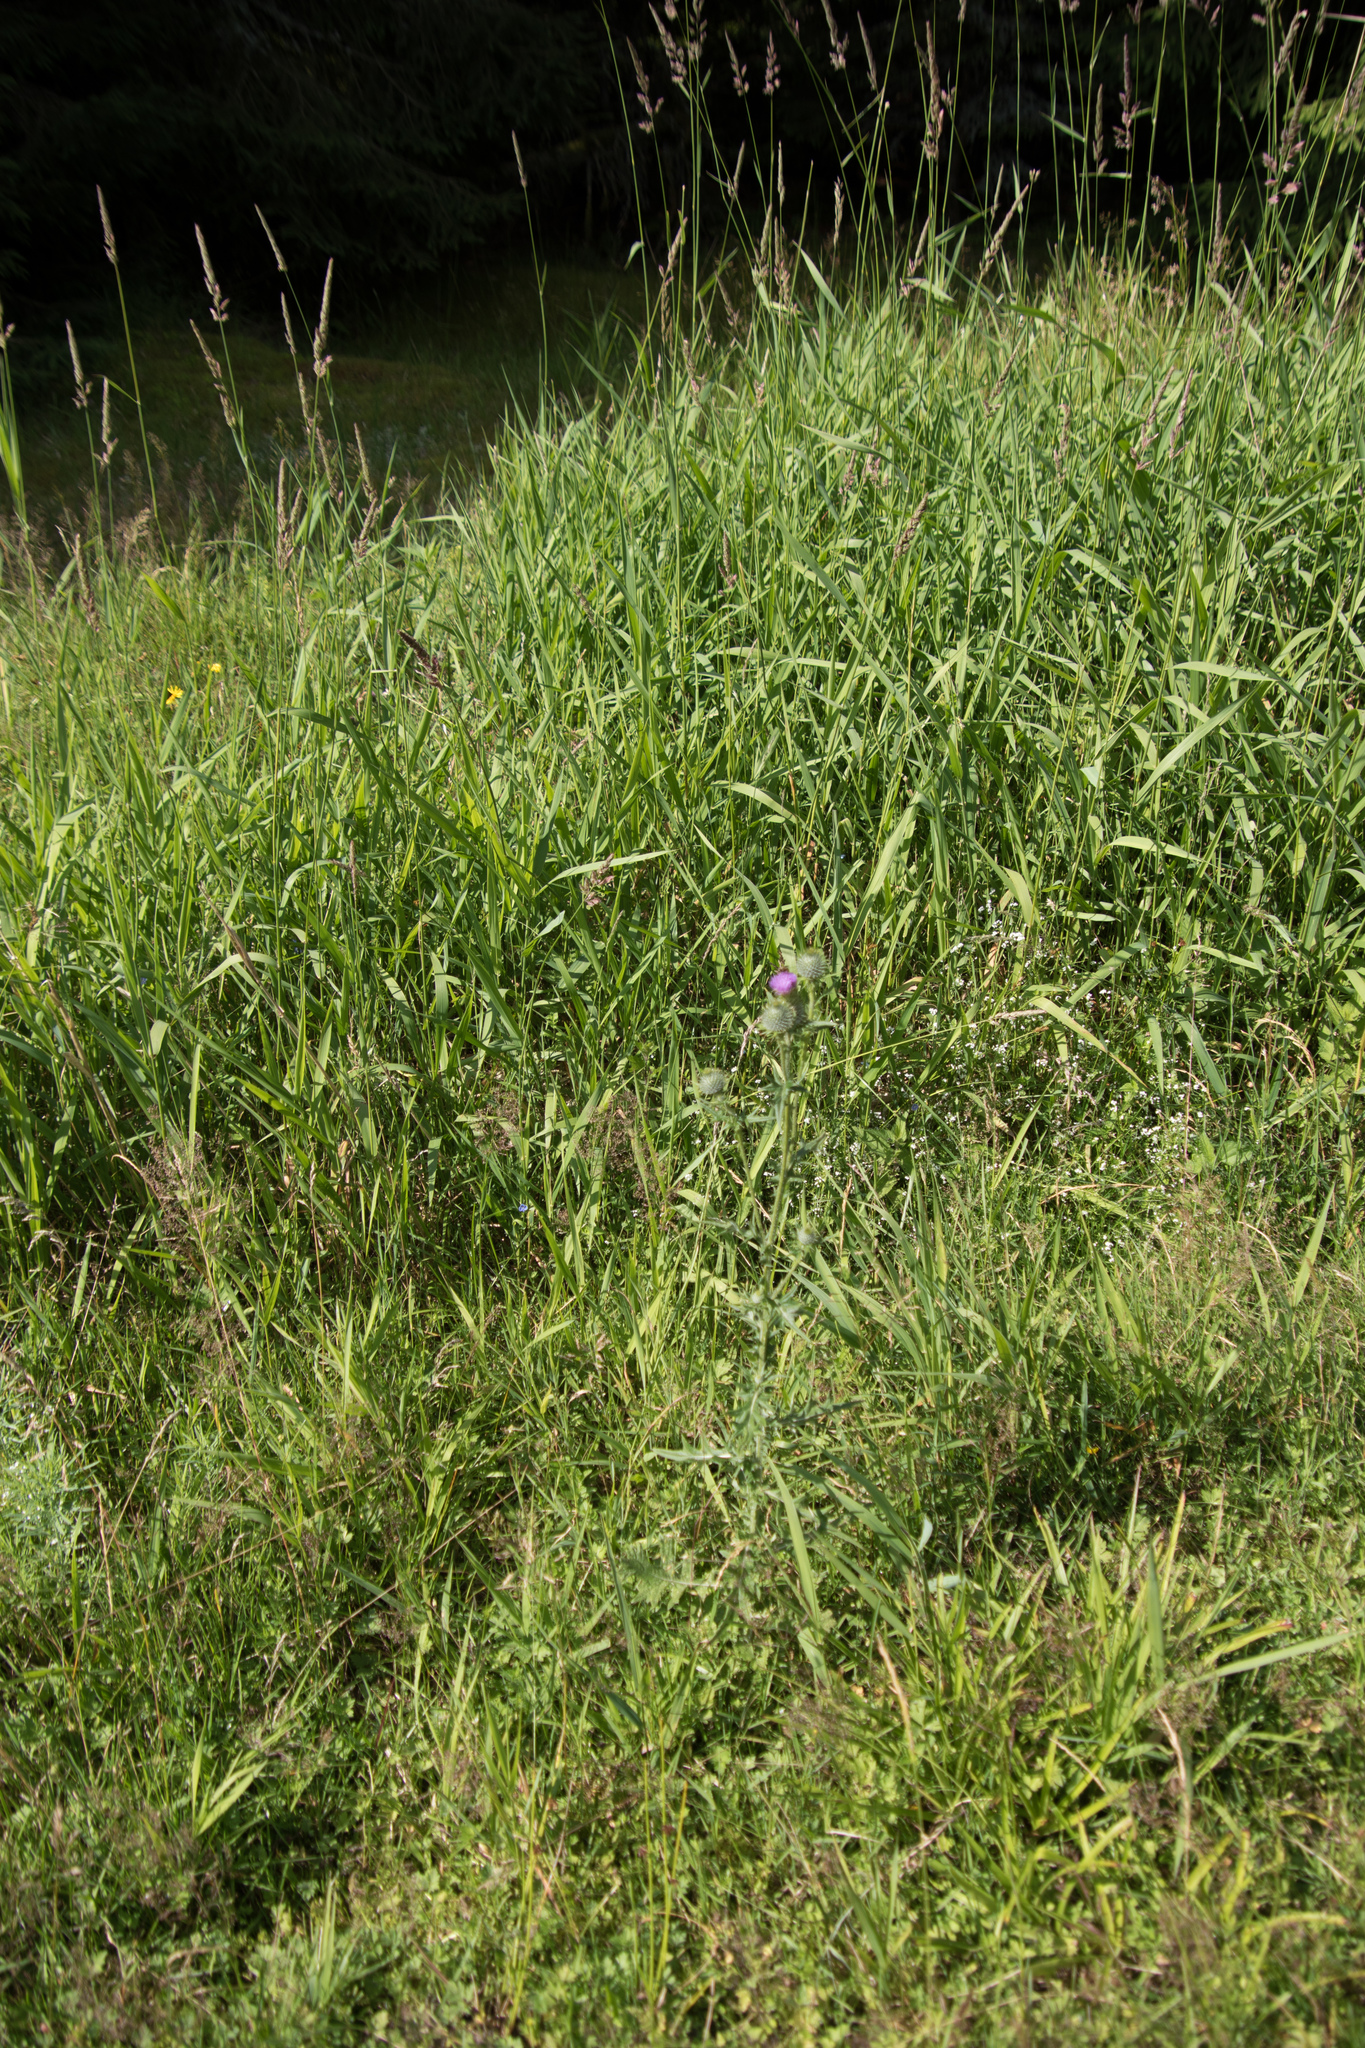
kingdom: Plantae
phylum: Tracheophyta
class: Magnoliopsida
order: Asterales
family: Asteraceae
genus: Cirsium
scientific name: Cirsium vulgare
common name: Bull thistle
